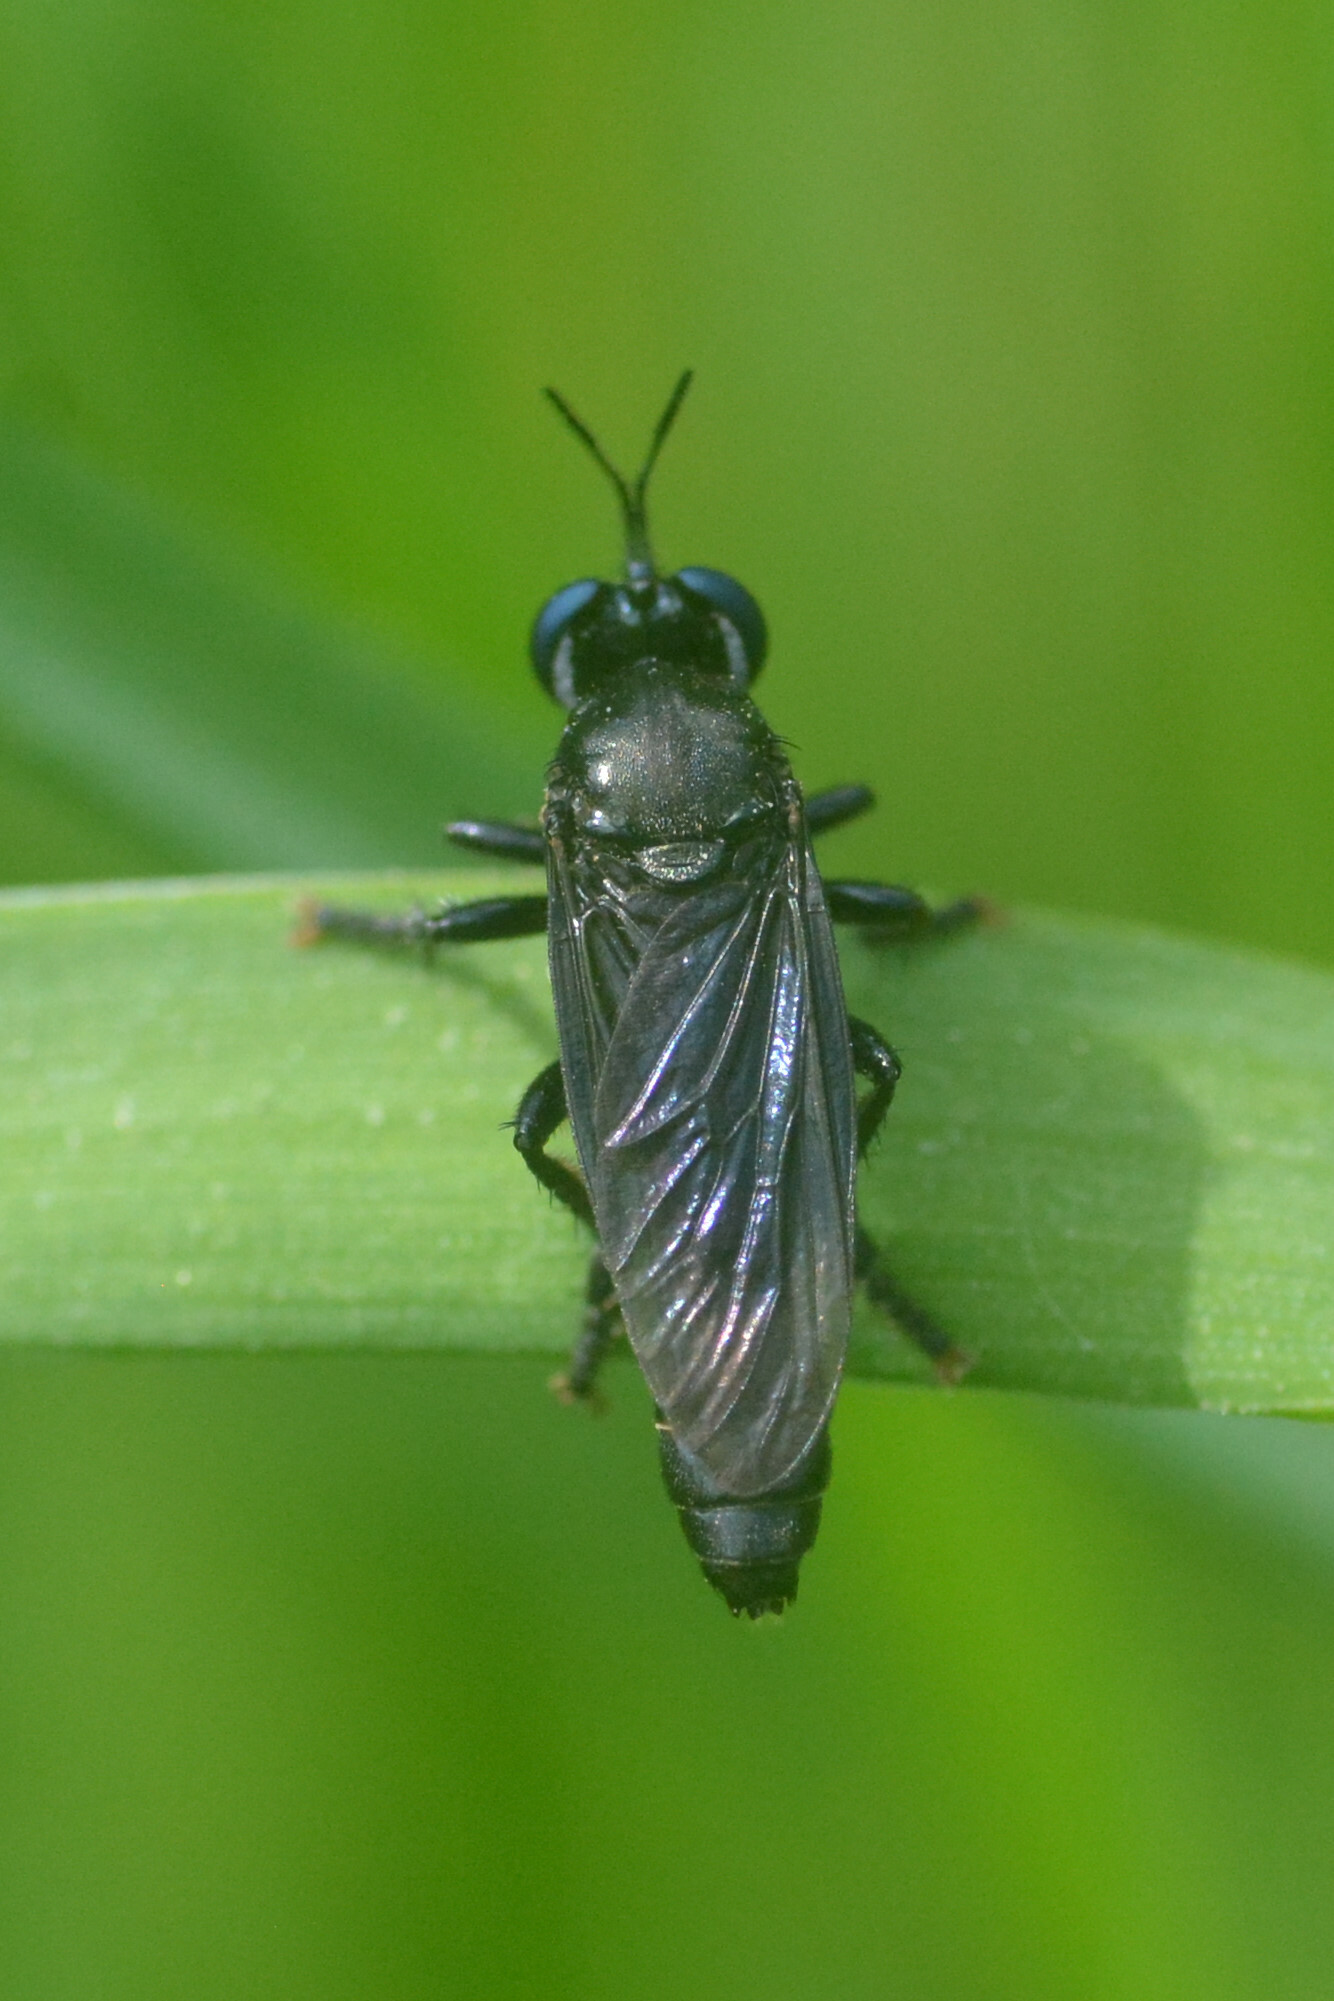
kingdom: Animalia
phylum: Arthropoda
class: Insecta
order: Diptera
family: Asilidae
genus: Dioctria
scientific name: Dioctria atricapilla
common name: Violet black-legged
